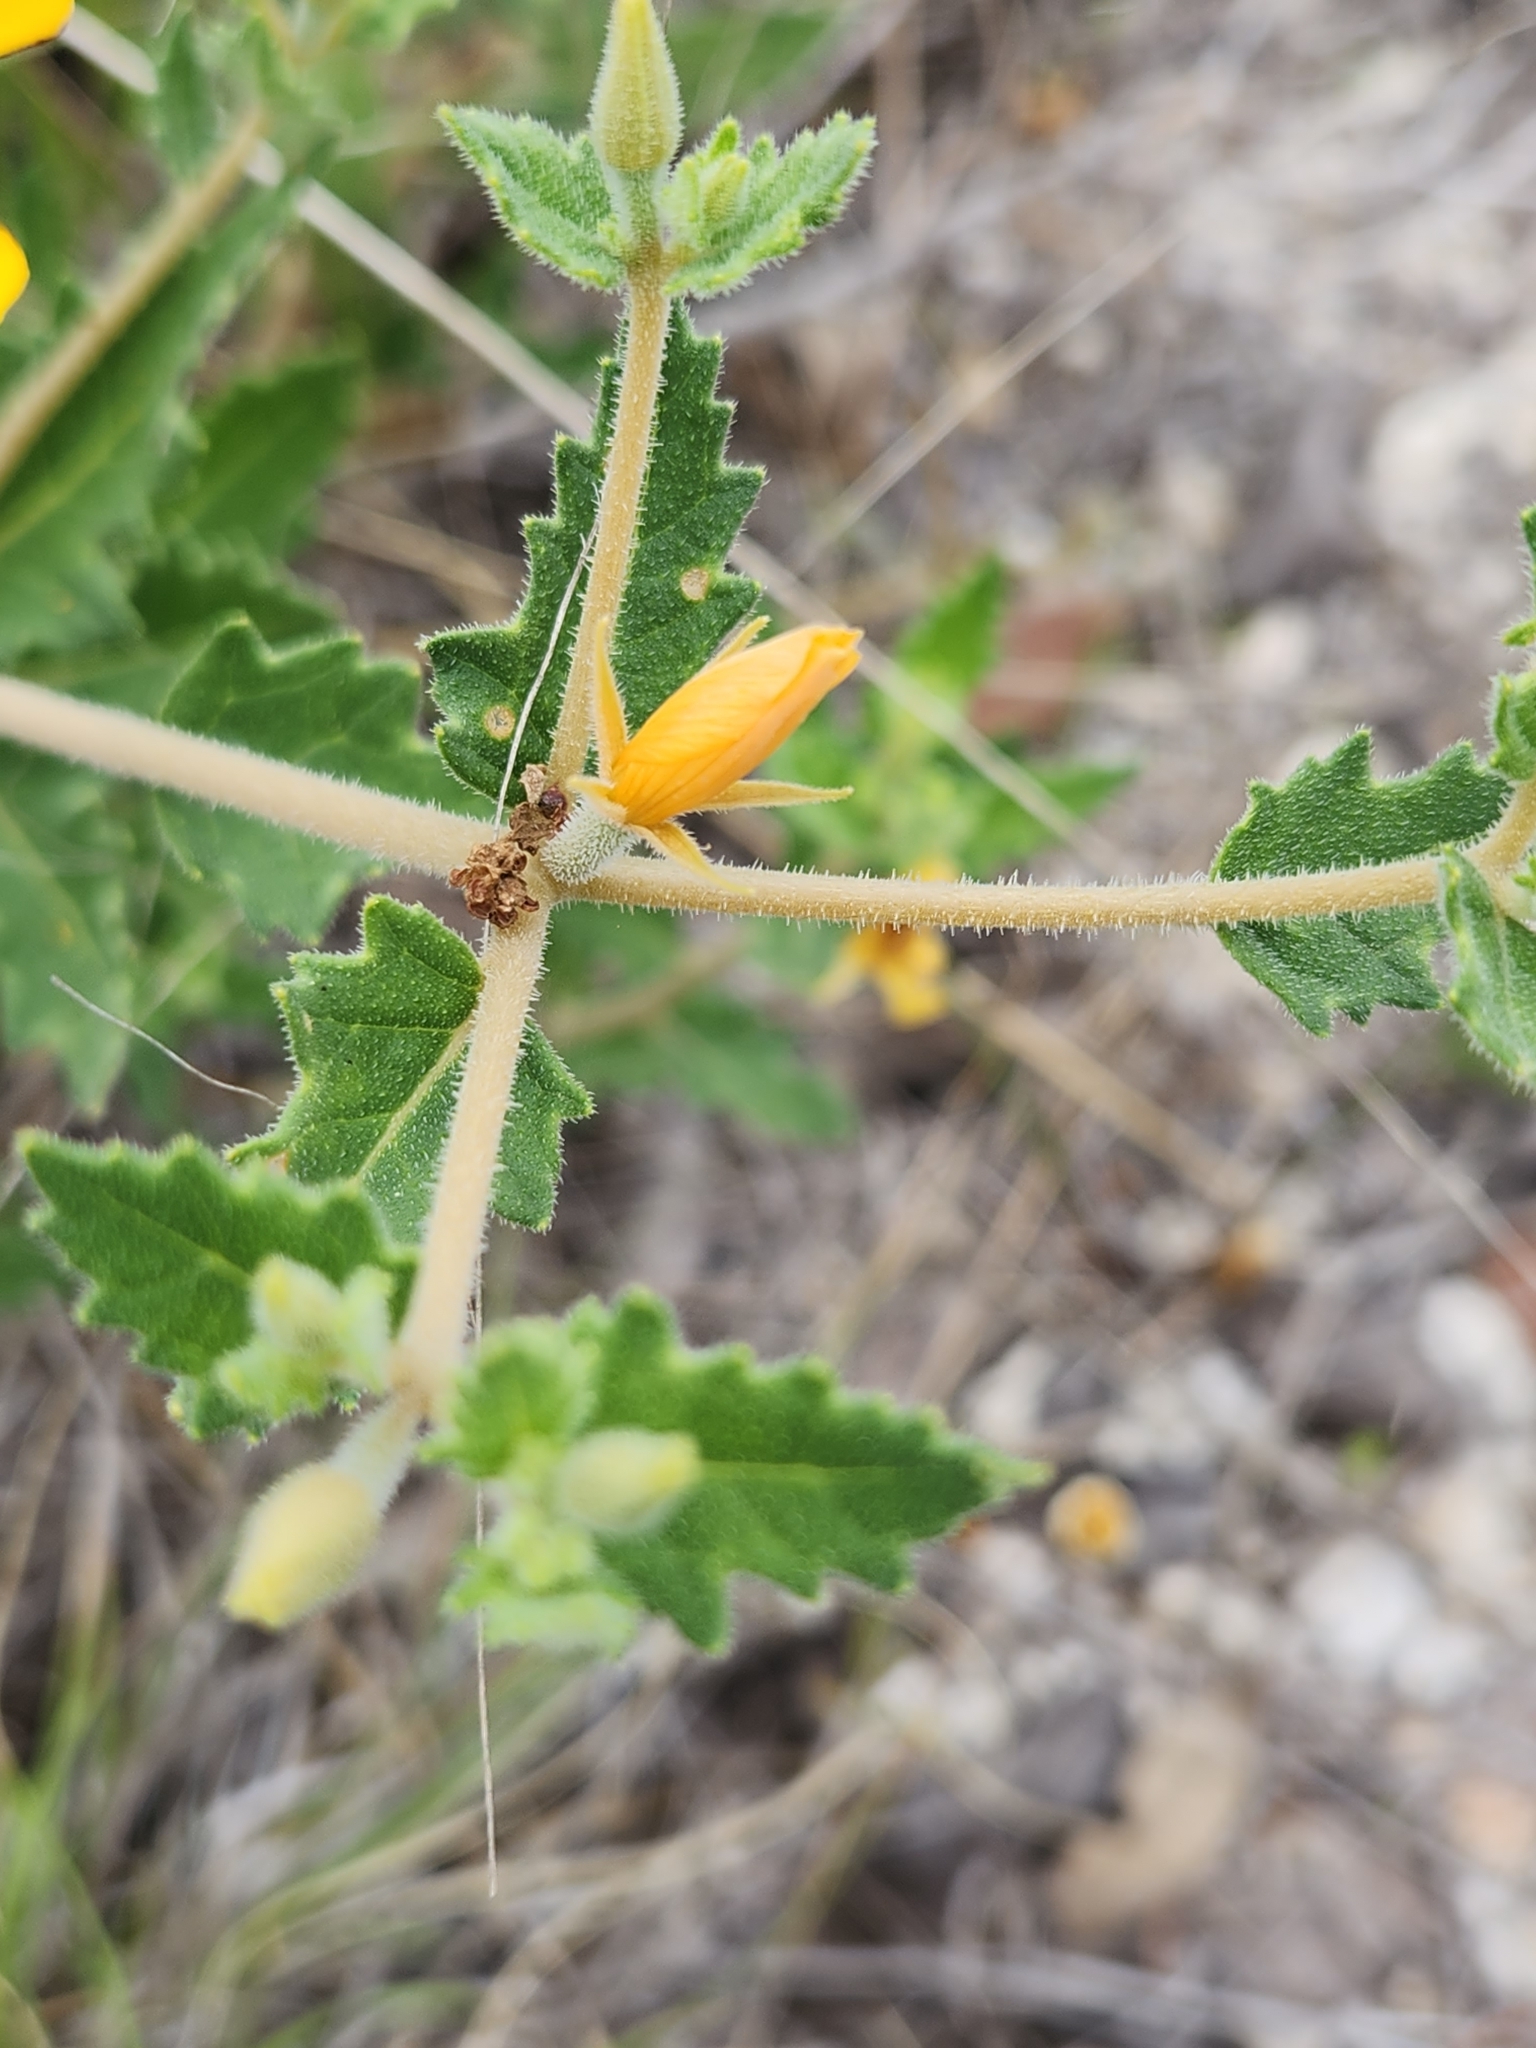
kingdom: Plantae
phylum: Tracheophyta
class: Magnoliopsida
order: Cornales
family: Loasaceae
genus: Mentzelia
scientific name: Mentzelia oligosperma
